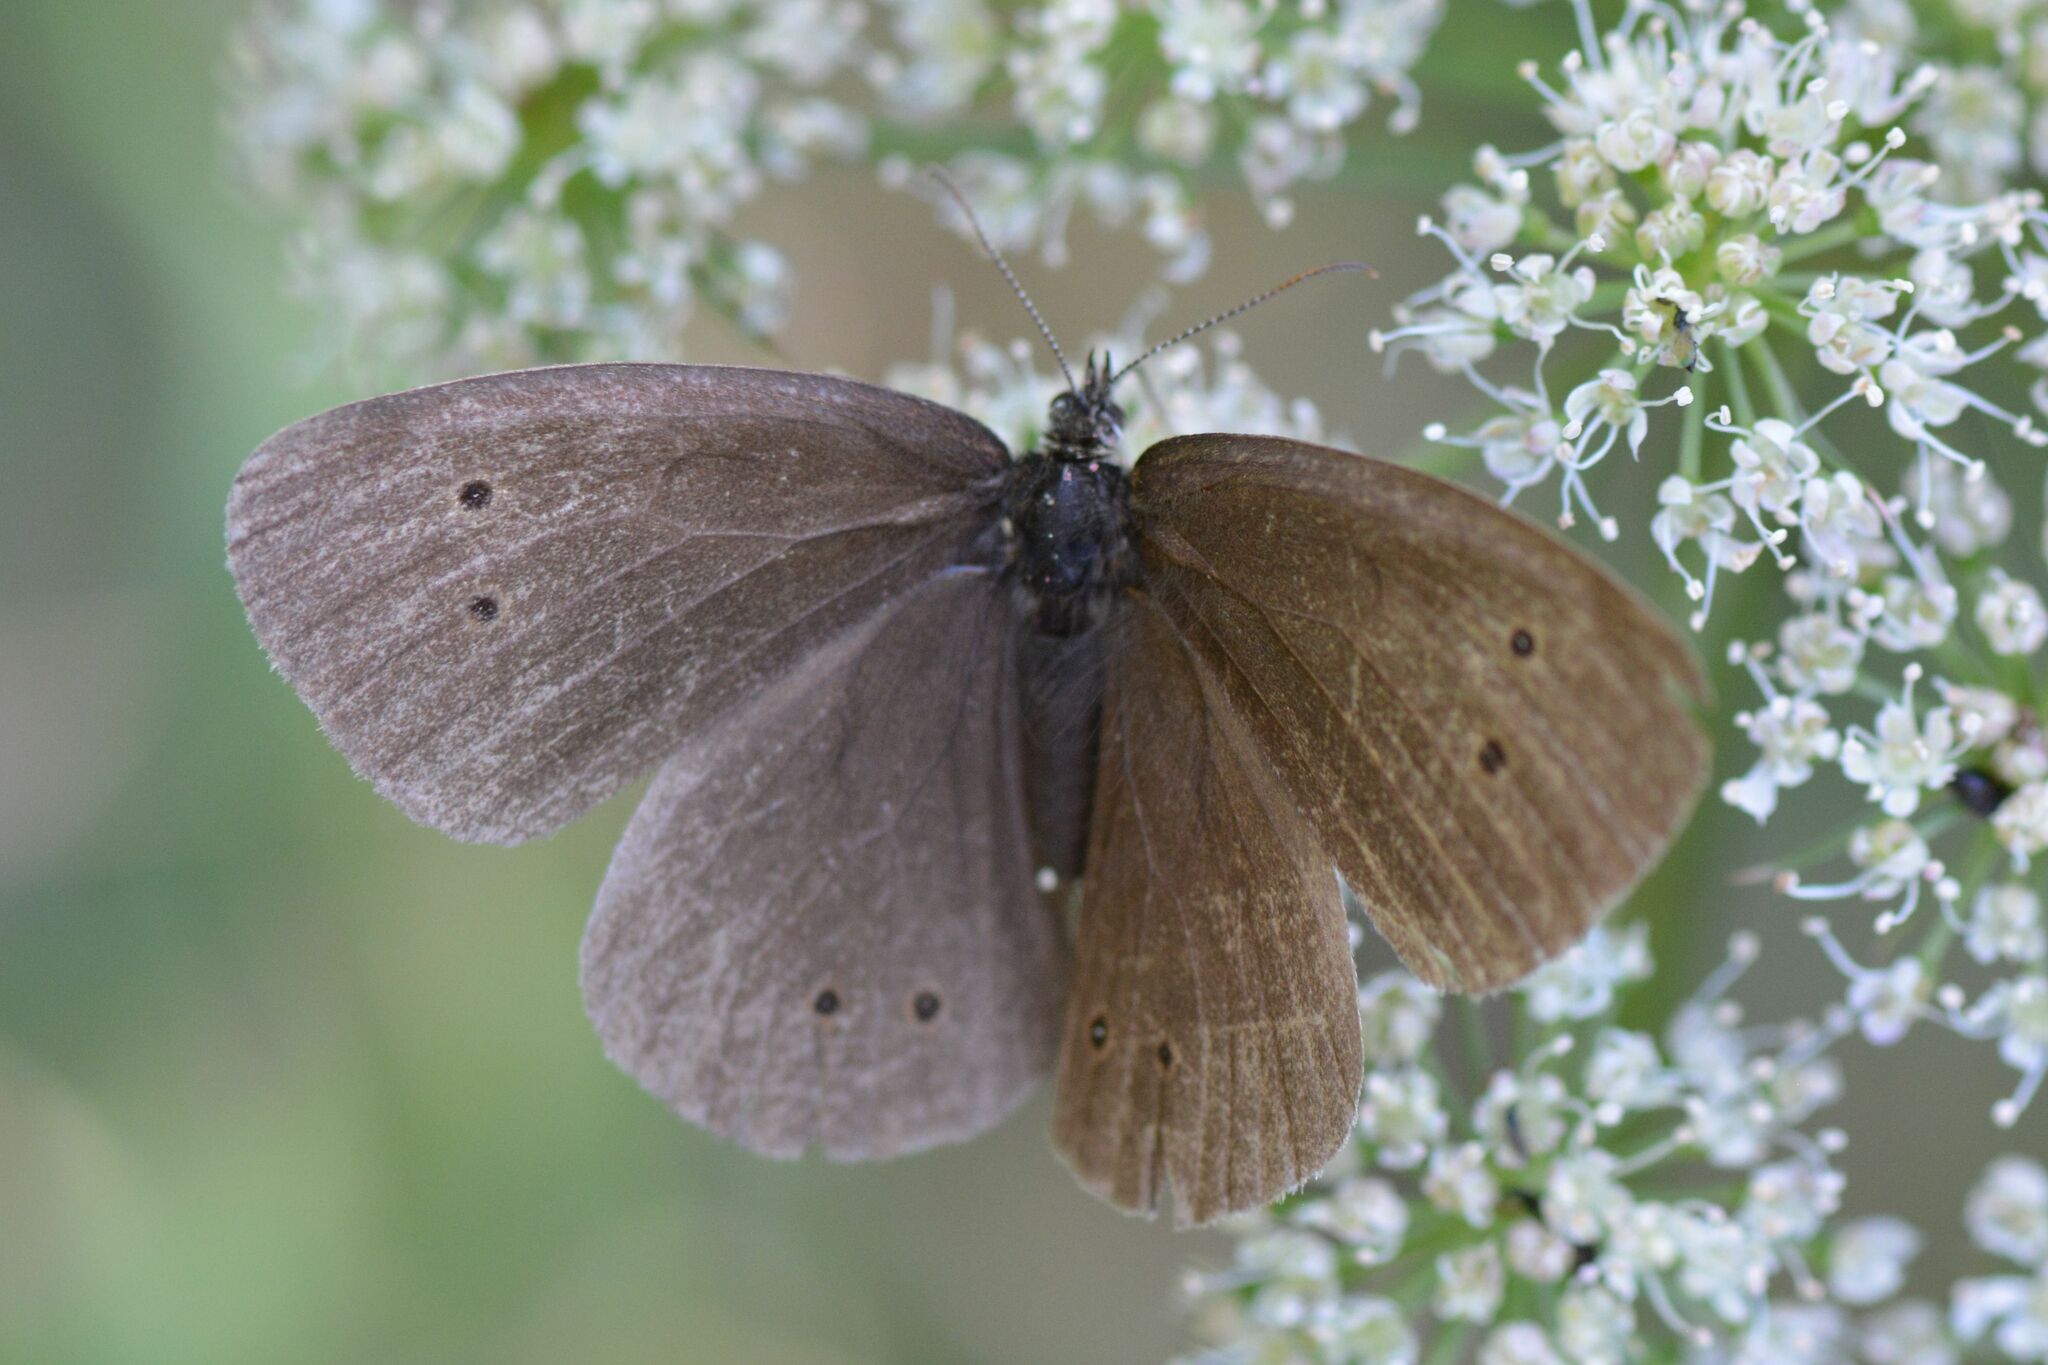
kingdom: Animalia
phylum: Arthropoda
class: Insecta
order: Lepidoptera
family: Nymphalidae
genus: Aphantopus
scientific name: Aphantopus hyperantus
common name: Ringlet
